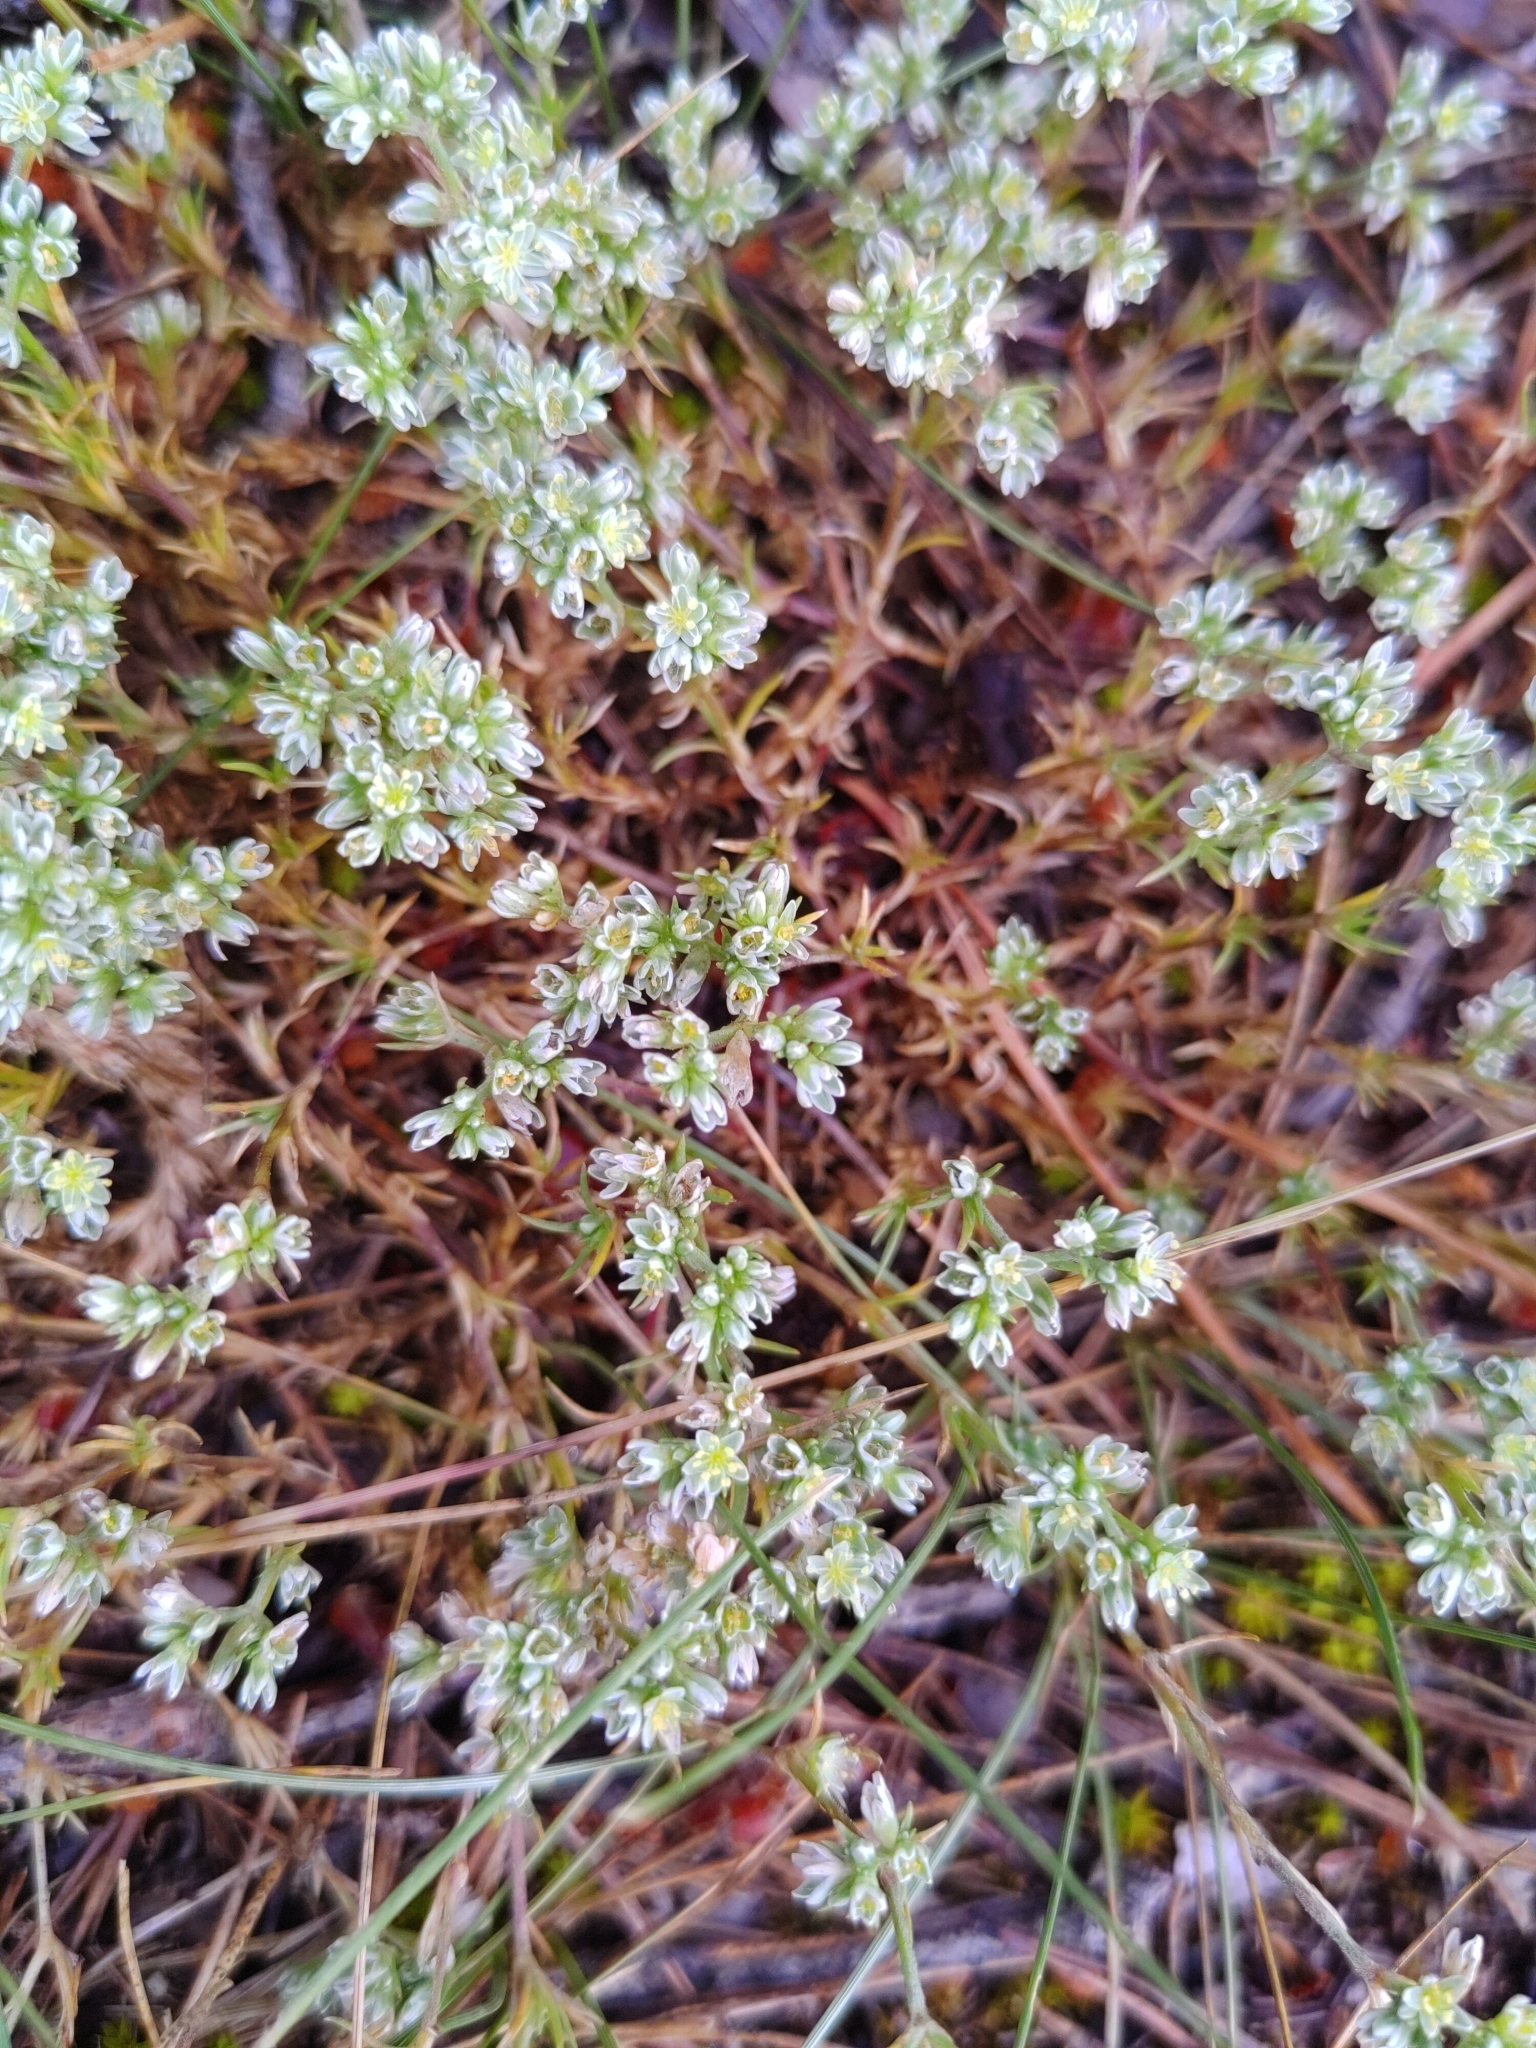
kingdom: Plantae
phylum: Tracheophyta
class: Magnoliopsida
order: Caryophyllales
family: Caryophyllaceae
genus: Scleranthus
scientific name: Scleranthus perennis
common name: Perennial knawel
